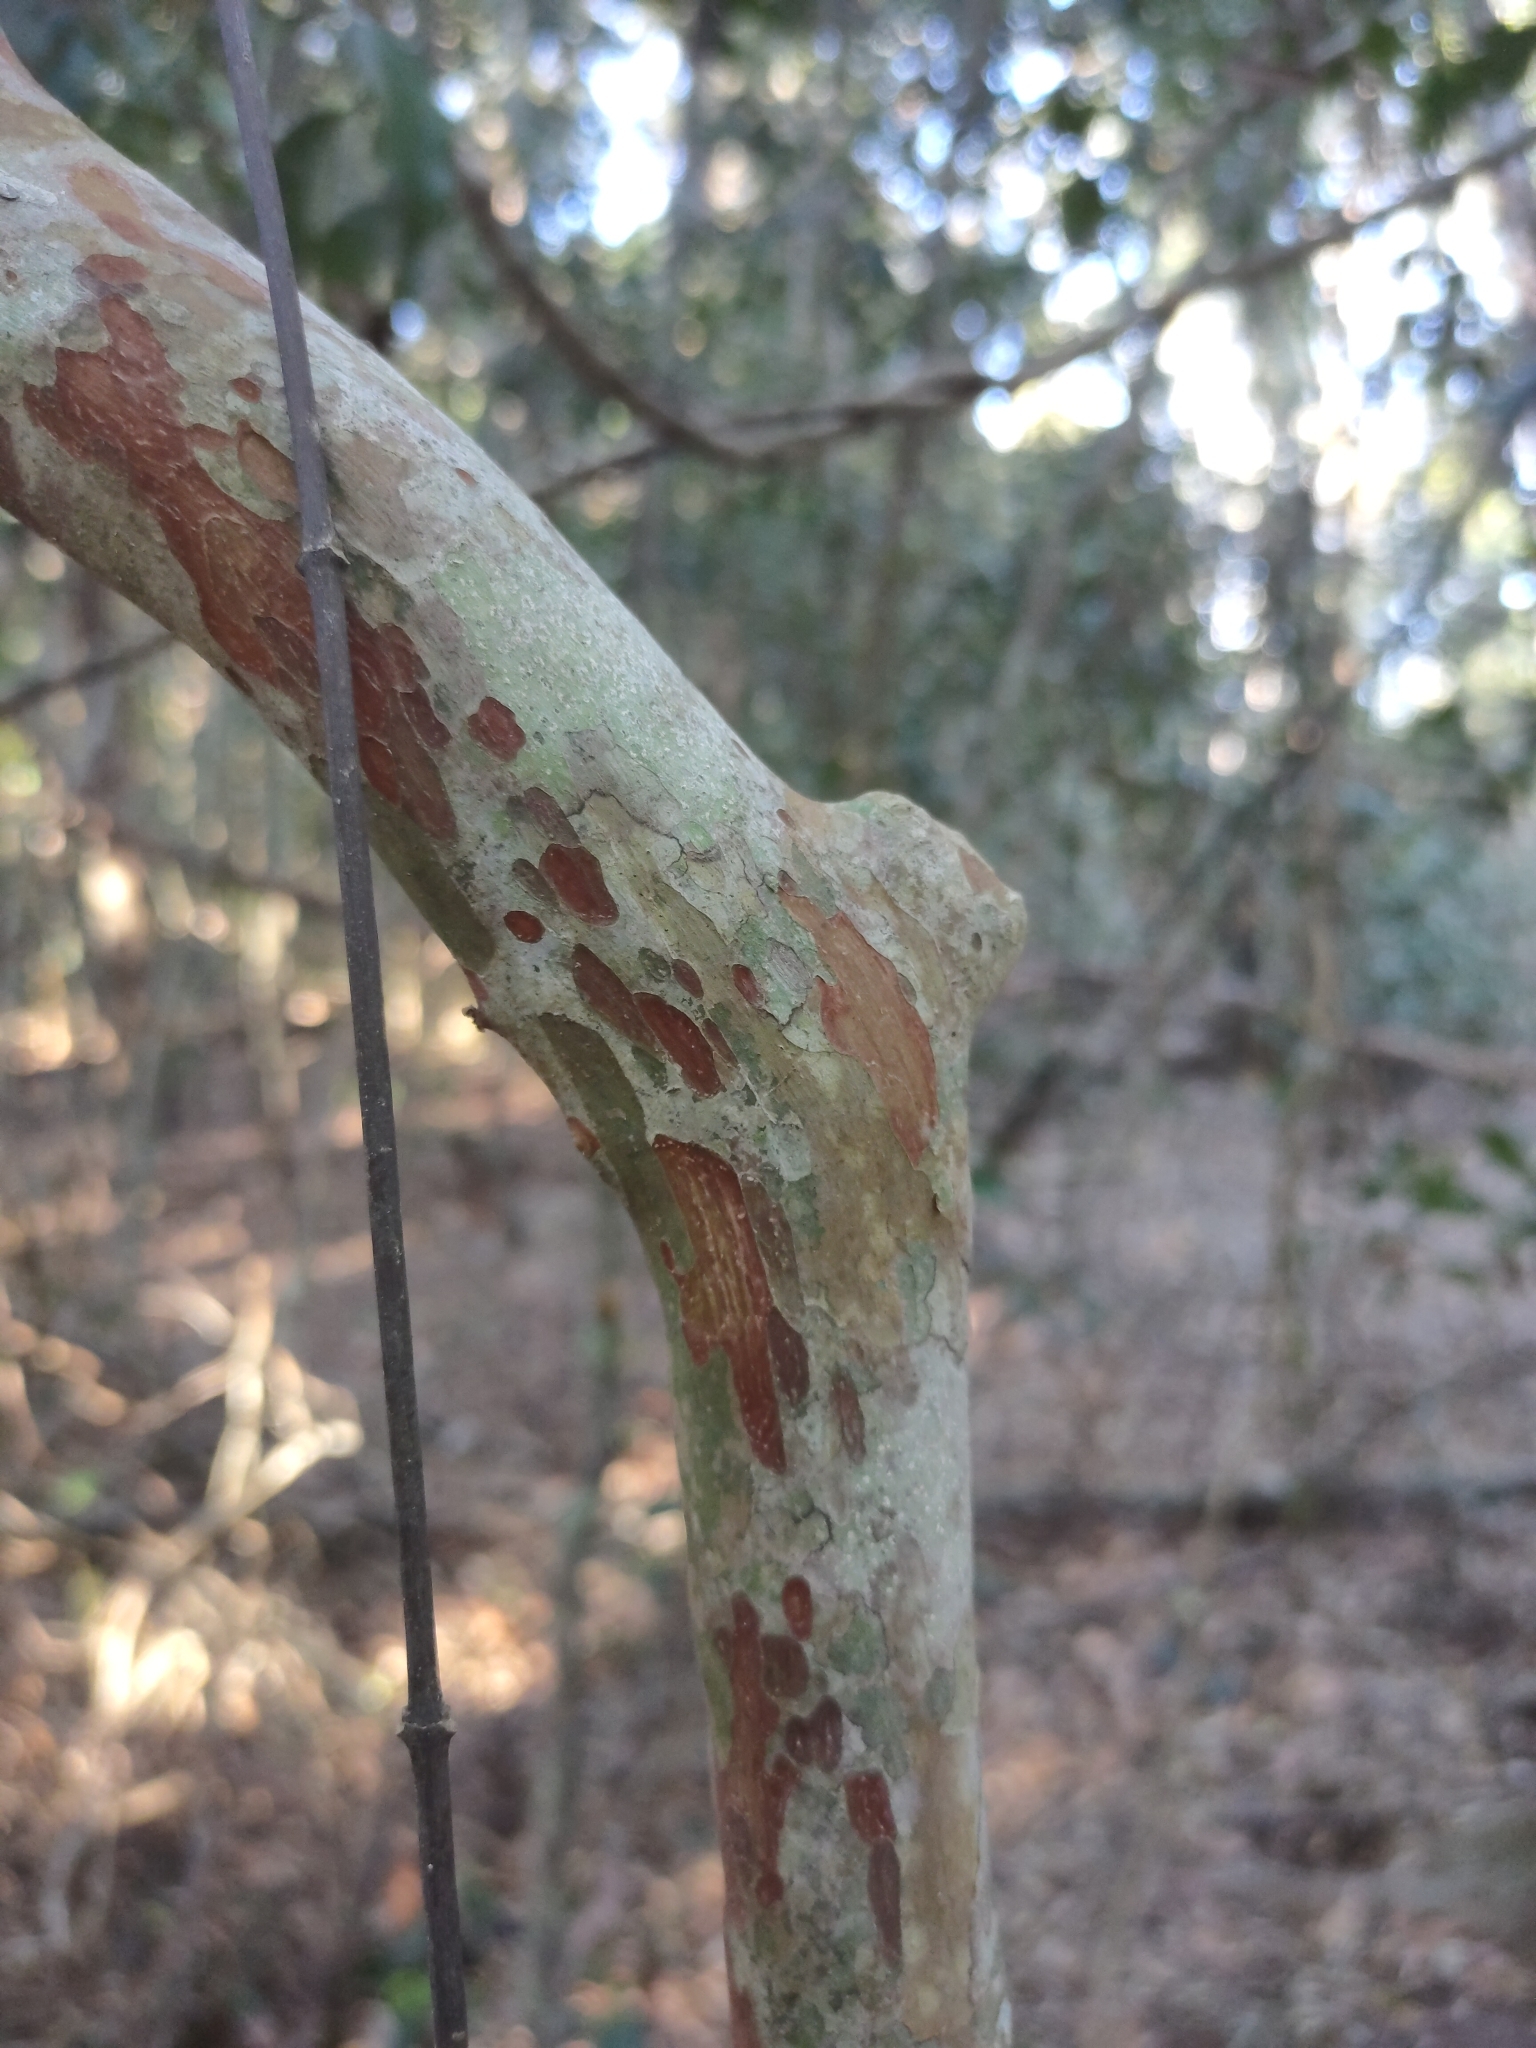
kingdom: Plantae
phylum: Tracheophyta
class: Magnoliopsida
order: Myrtales
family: Myrtaceae
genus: Gossia
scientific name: Gossia bidwillii
